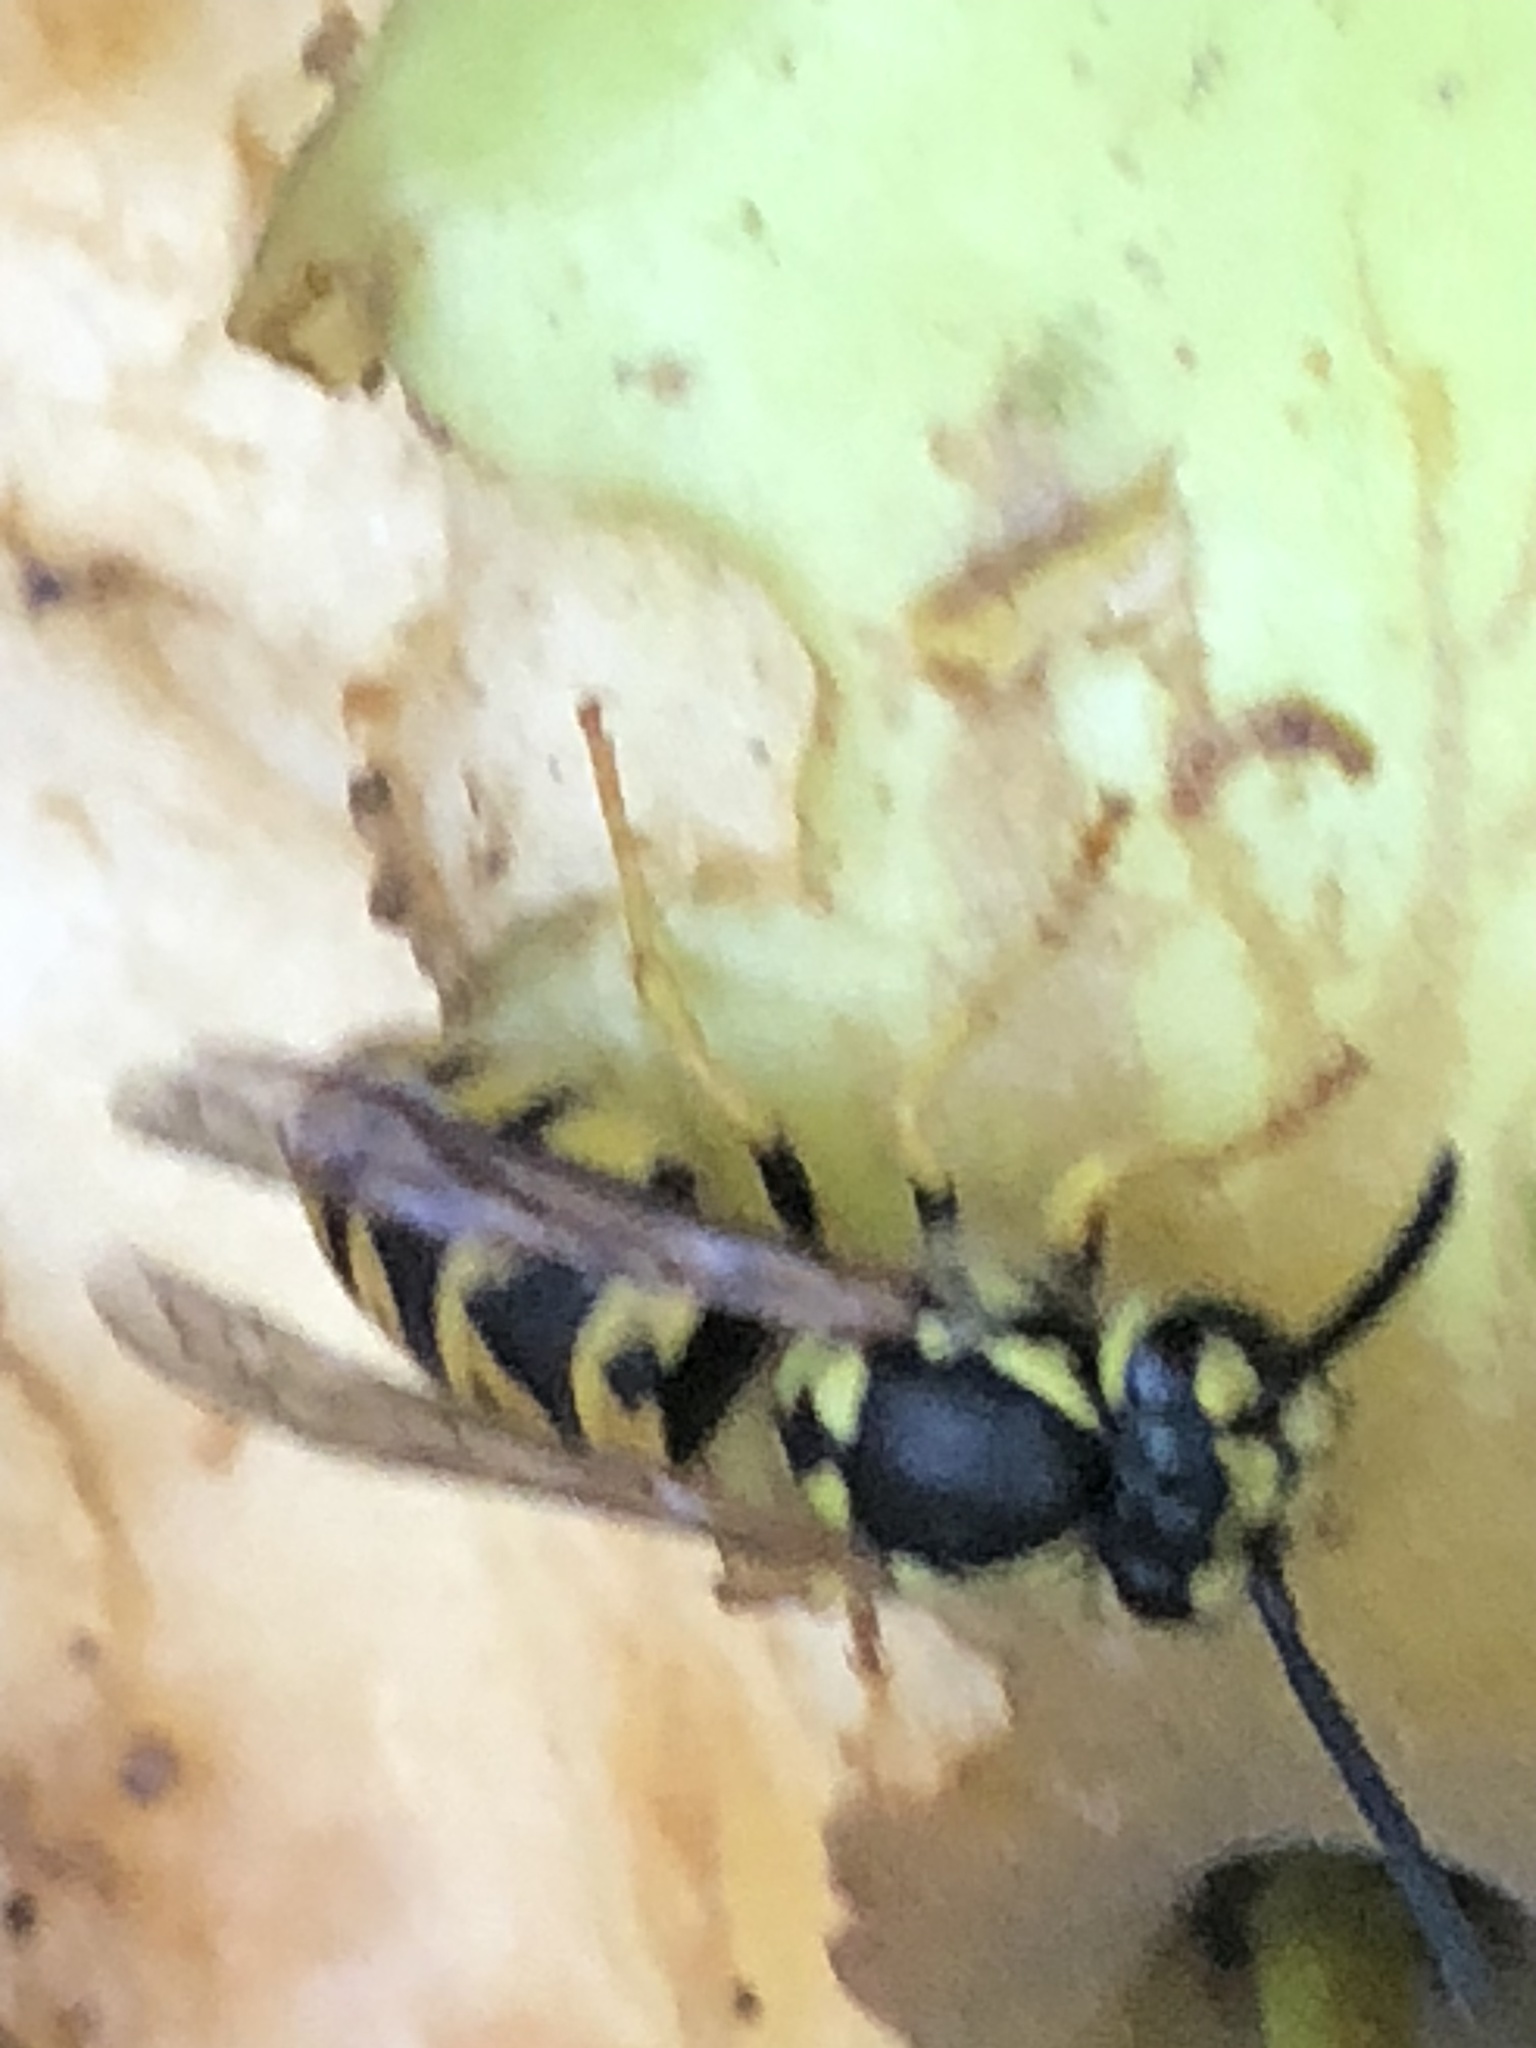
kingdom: Animalia
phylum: Arthropoda
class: Insecta
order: Hymenoptera
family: Vespidae
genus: Vespula
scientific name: Vespula germanica
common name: German wasp
